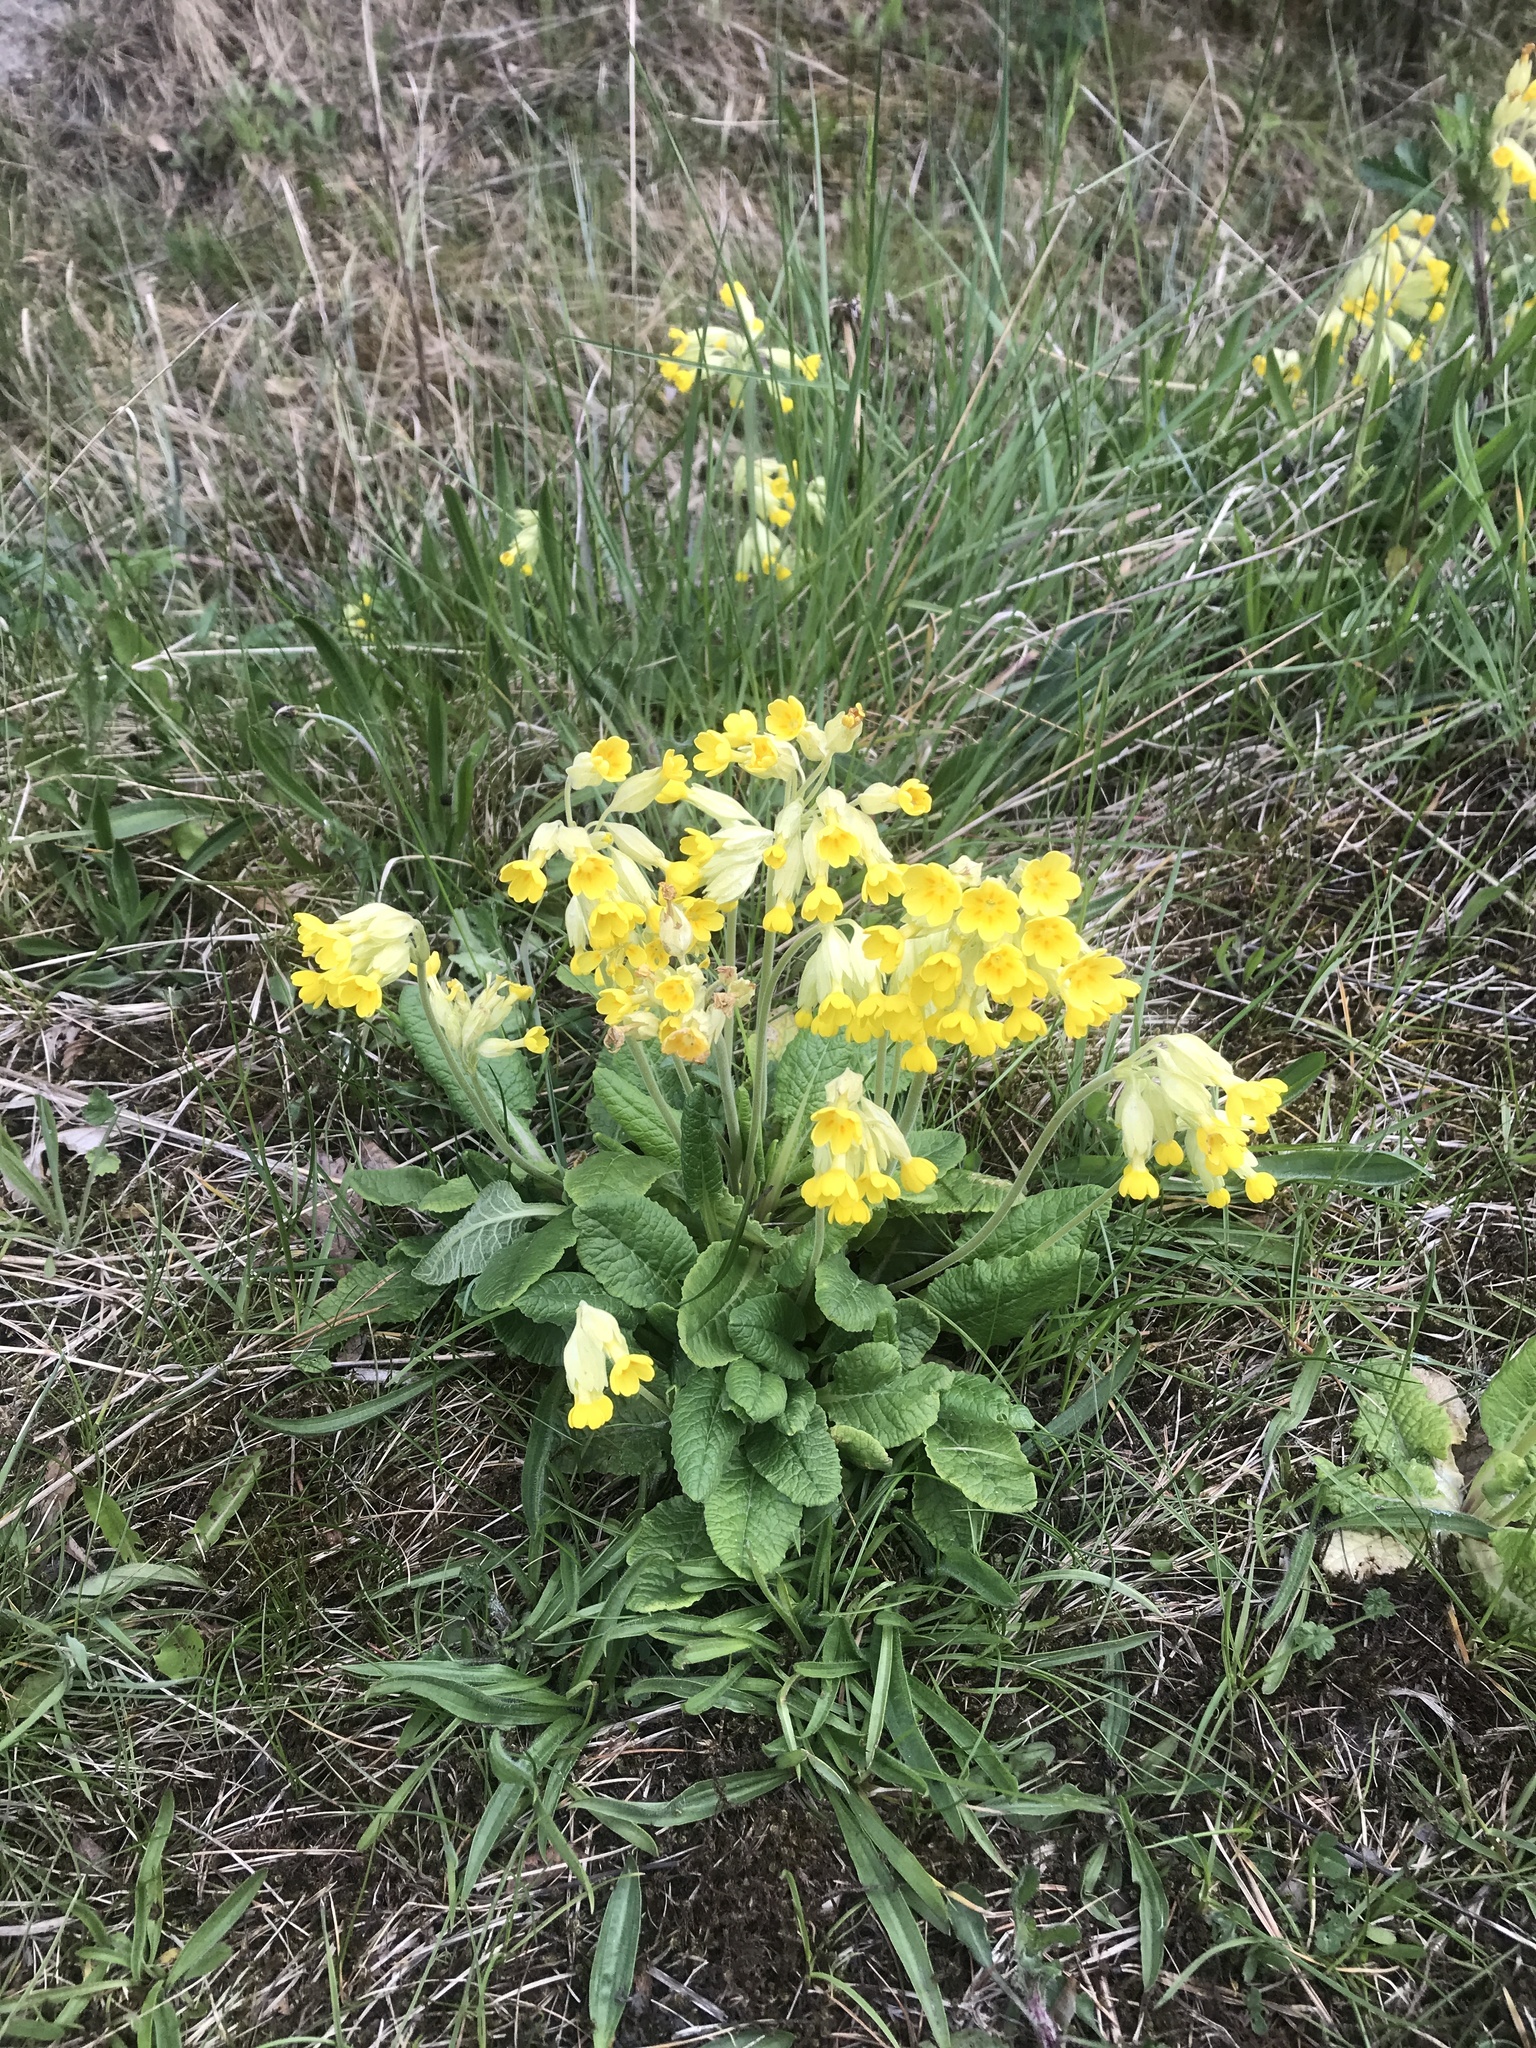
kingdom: Plantae
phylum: Tracheophyta
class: Magnoliopsida
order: Ericales
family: Primulaceae
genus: Primula
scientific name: Primula veris
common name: Cowslip
